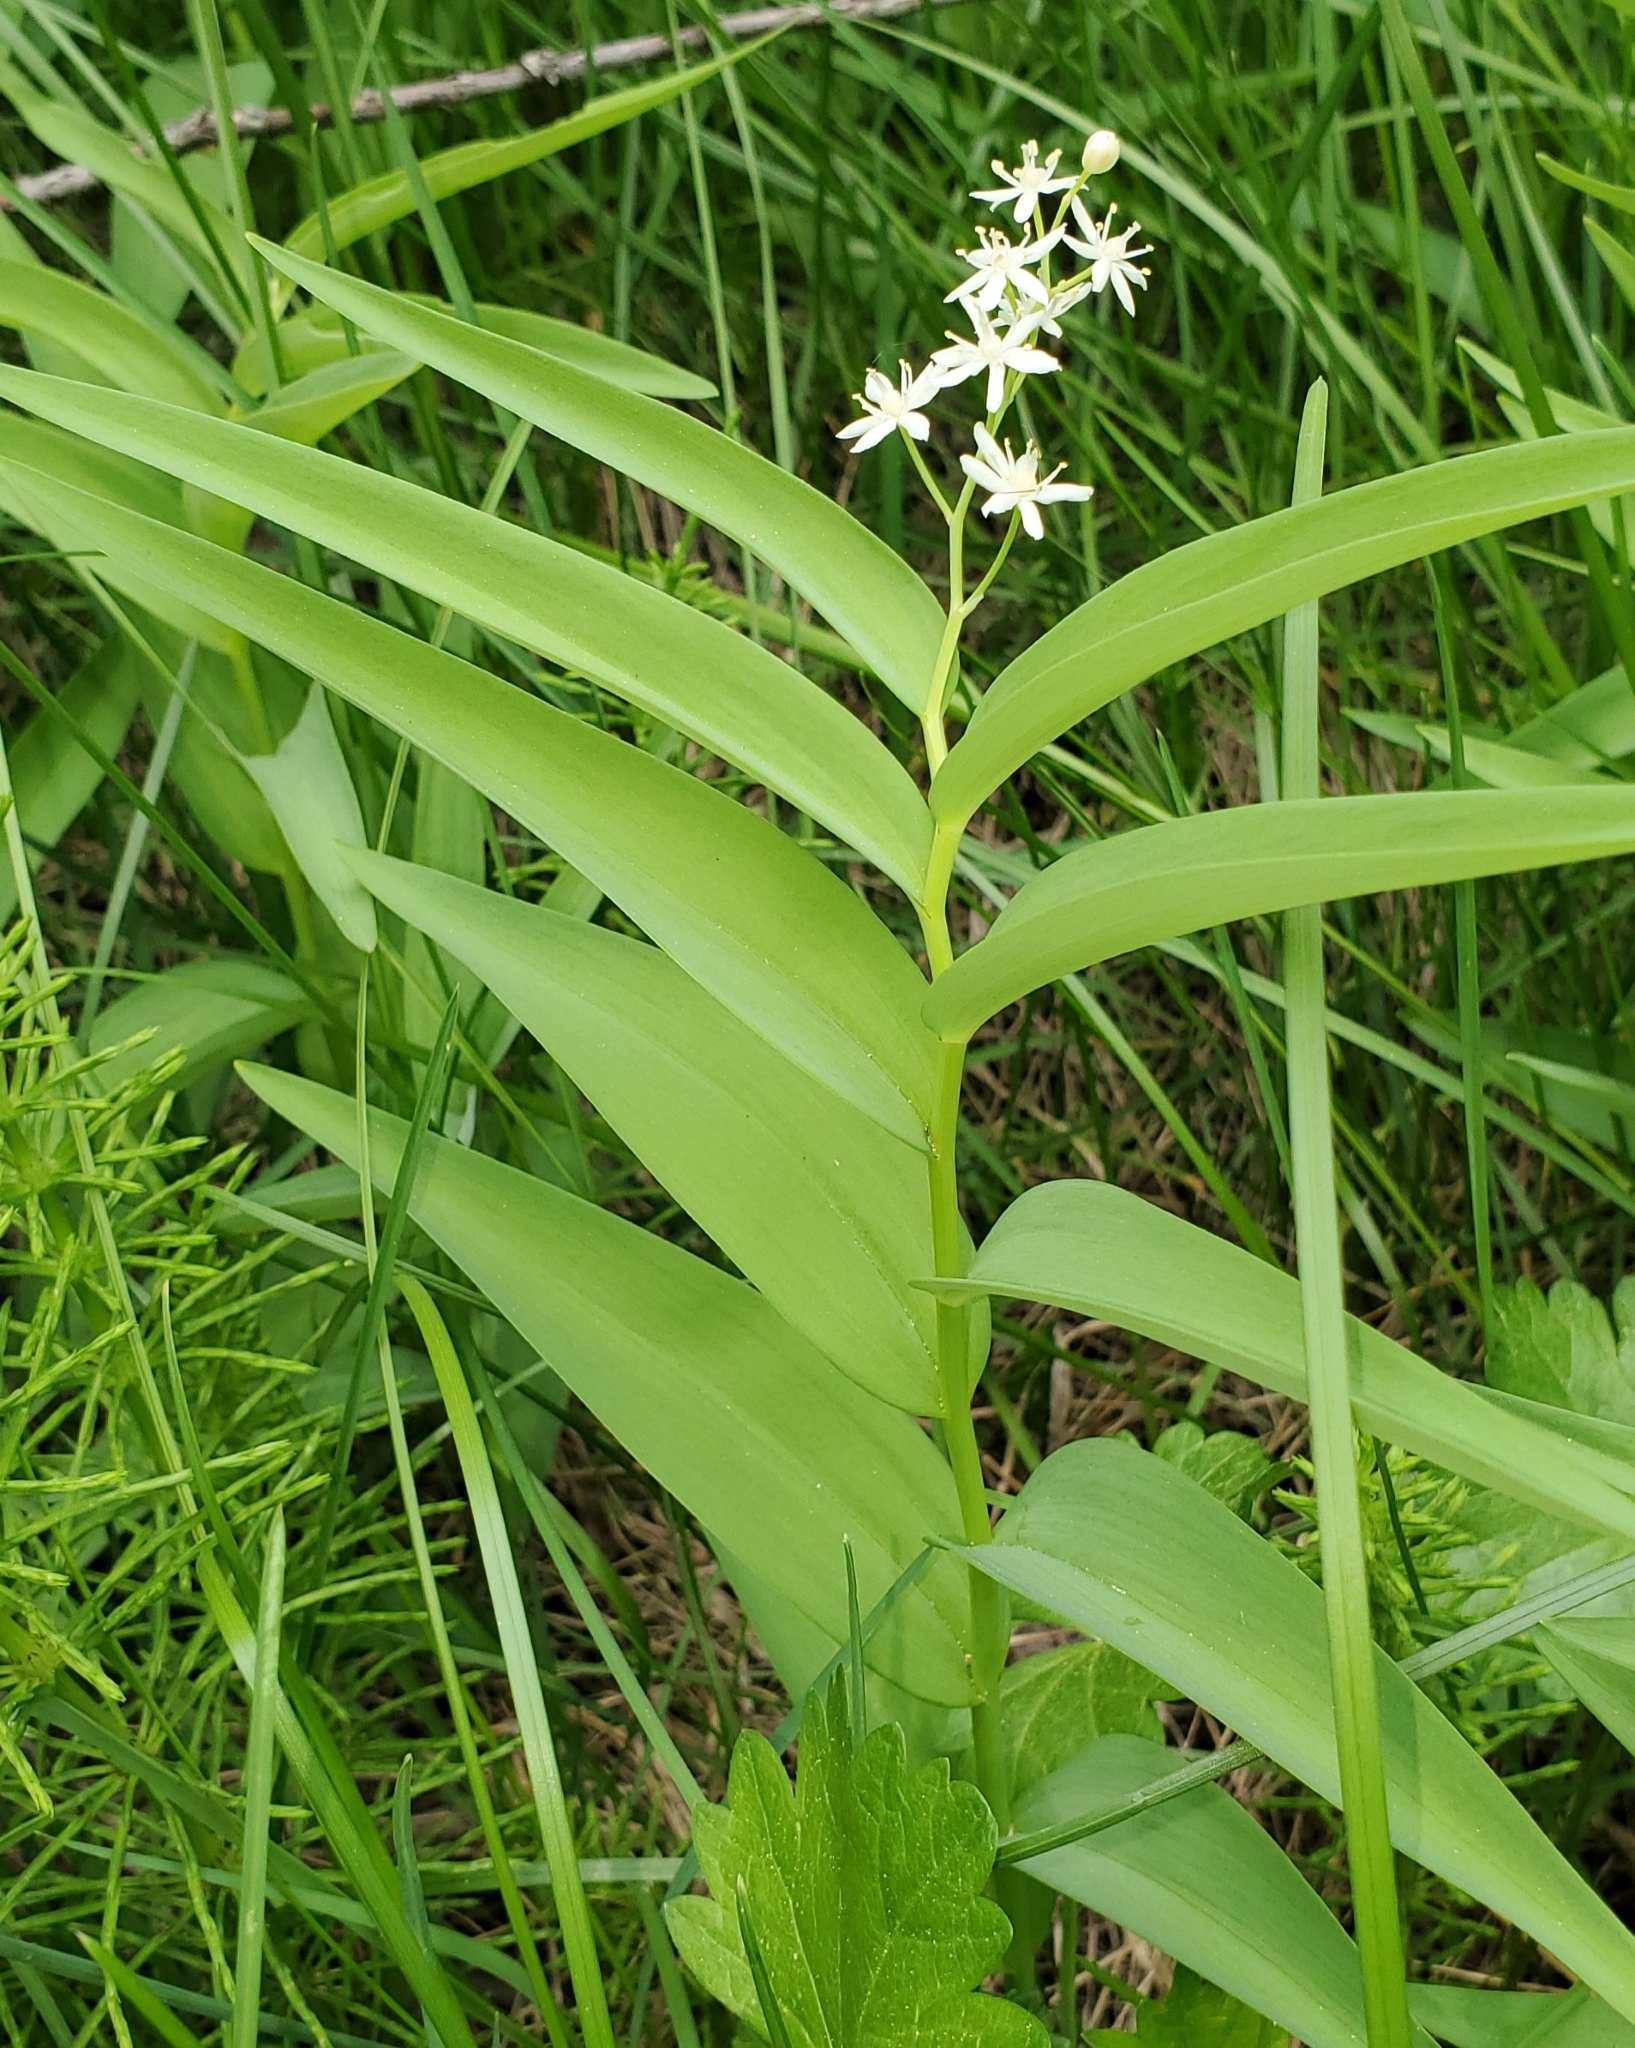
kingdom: Plantae
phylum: Tracheophyta
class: Liliopsida
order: Asparagales
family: Asparagaceae
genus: Maianthemum
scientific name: Maianthemum stellatum
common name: Little false solomon's seal
